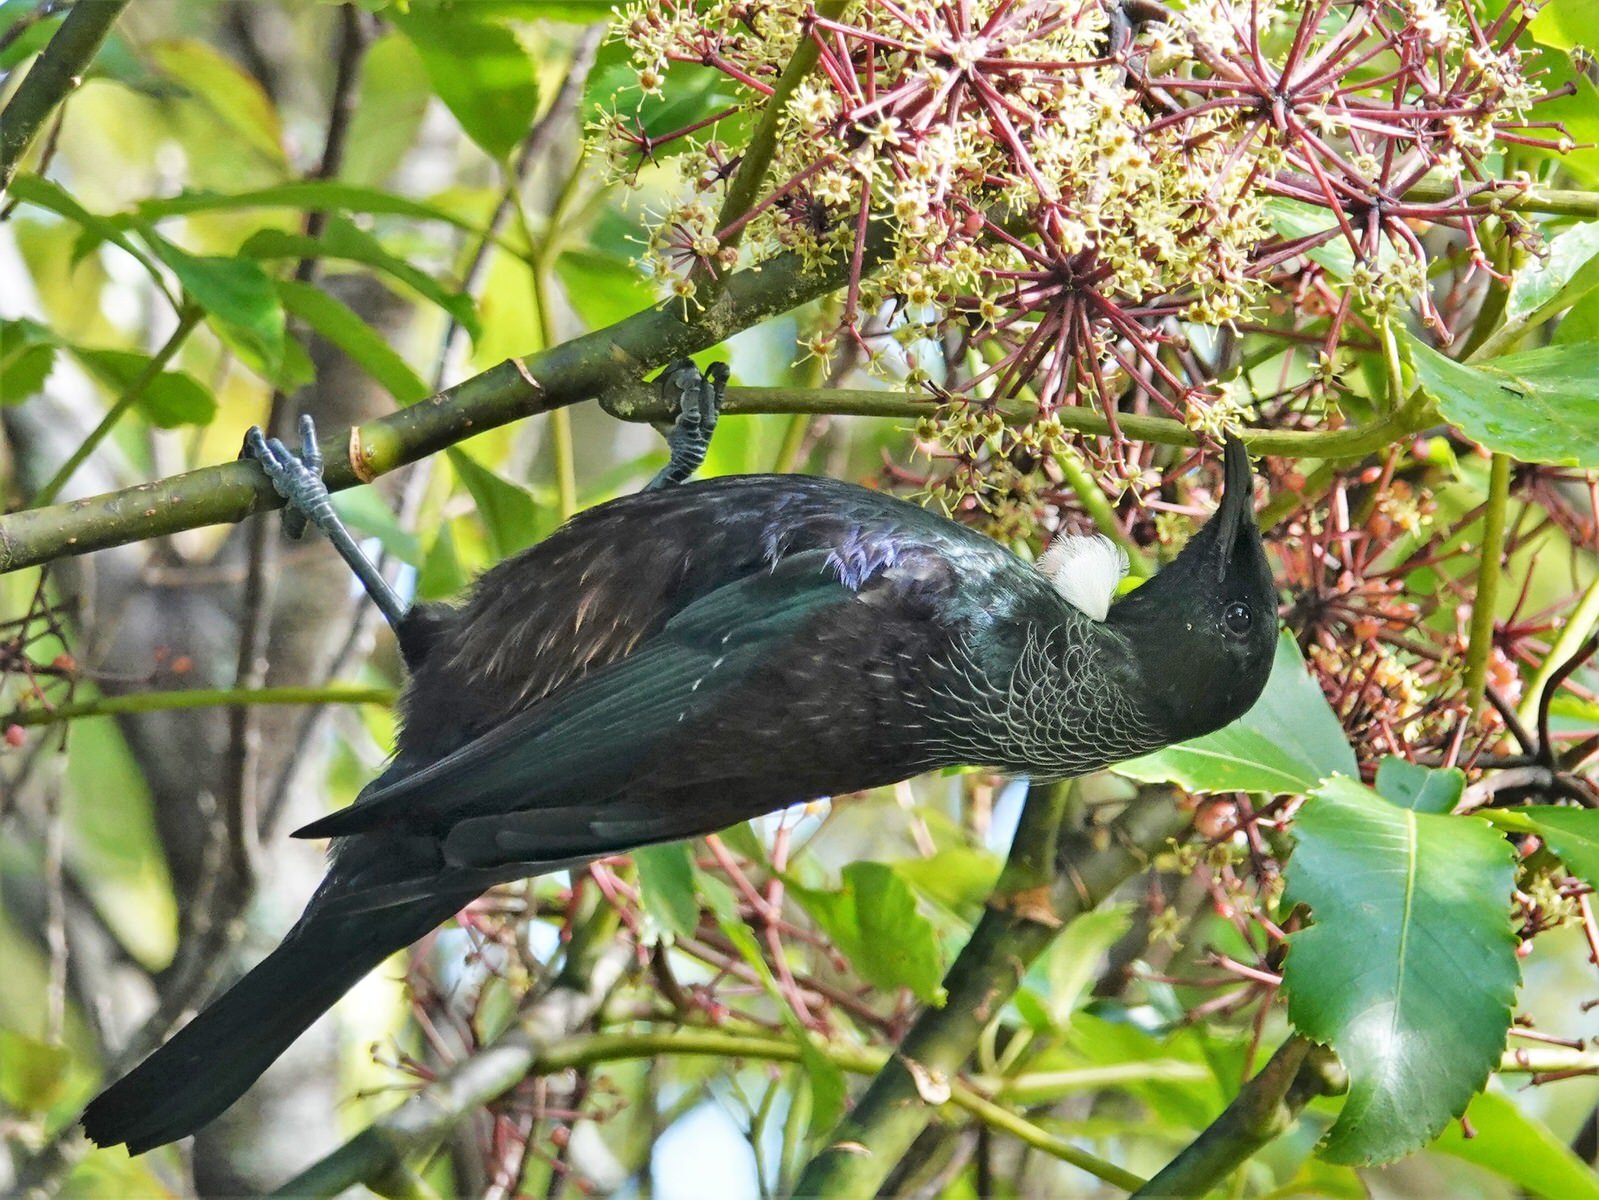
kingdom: Animalia
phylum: Chordata
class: Aves
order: Passeriformes
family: Meliphagidae
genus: Prosthemadera
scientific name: Prosthemadera novaeseelandiae
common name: Tui
